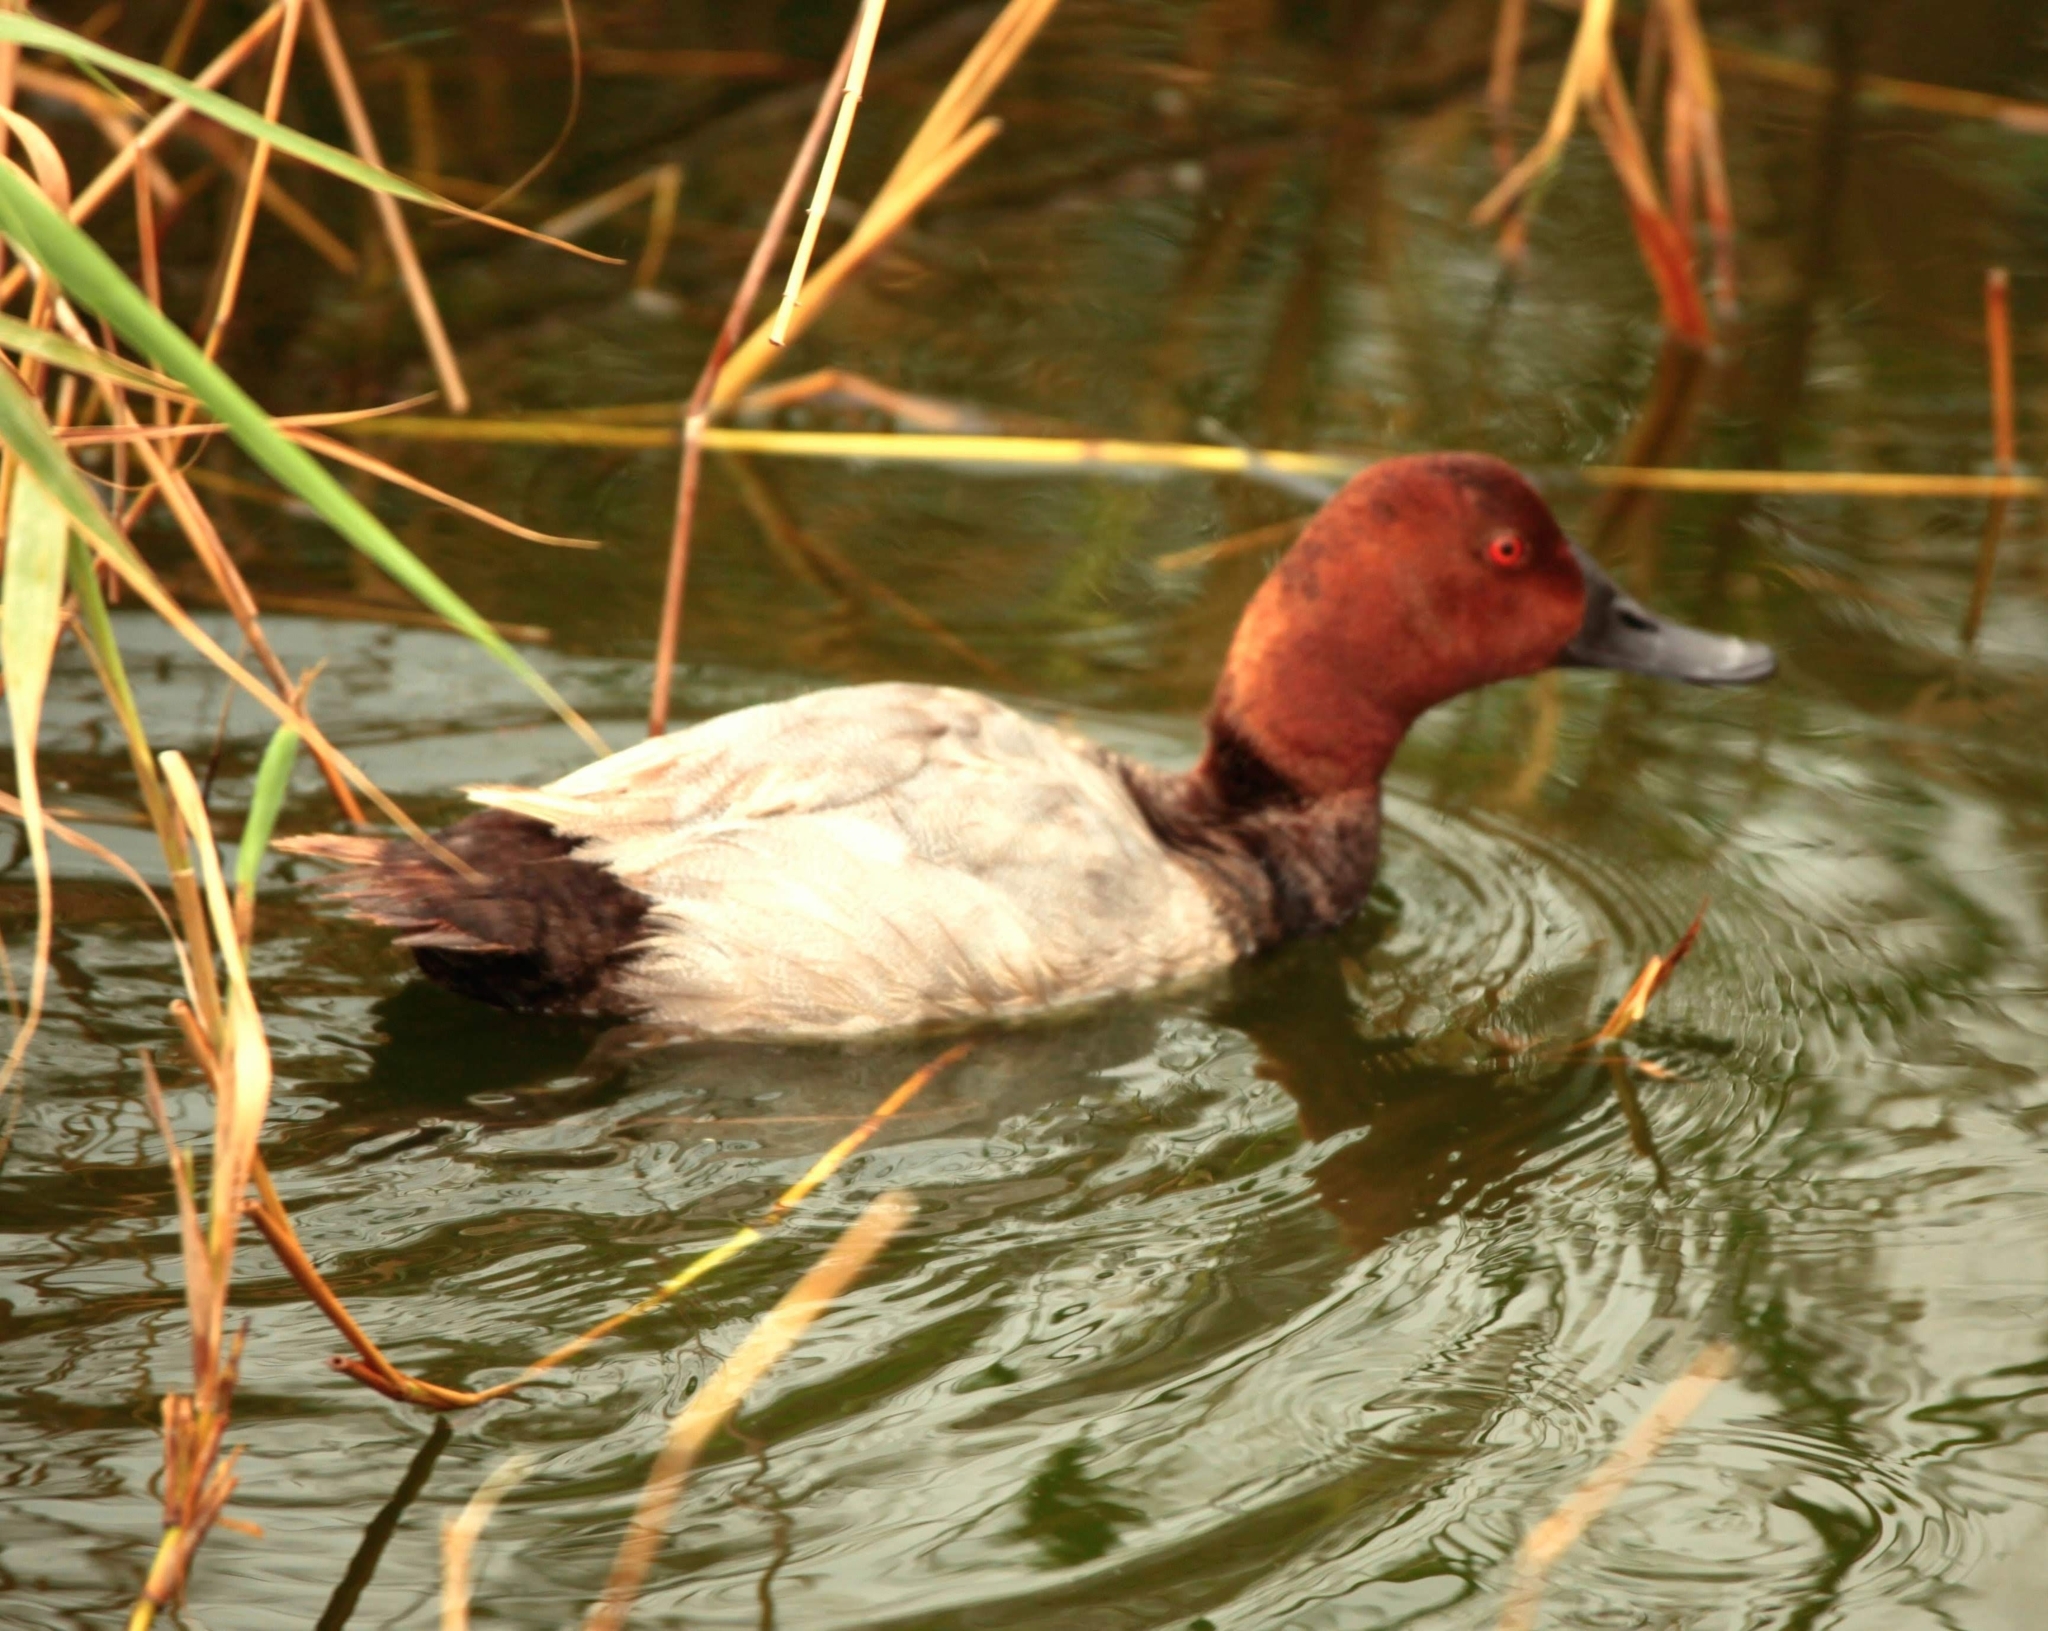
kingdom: Animalia
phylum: Chordata
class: Aves
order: Anseriformes
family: Anatidae
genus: Aythya
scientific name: Aythya ferina
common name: Common pochard
